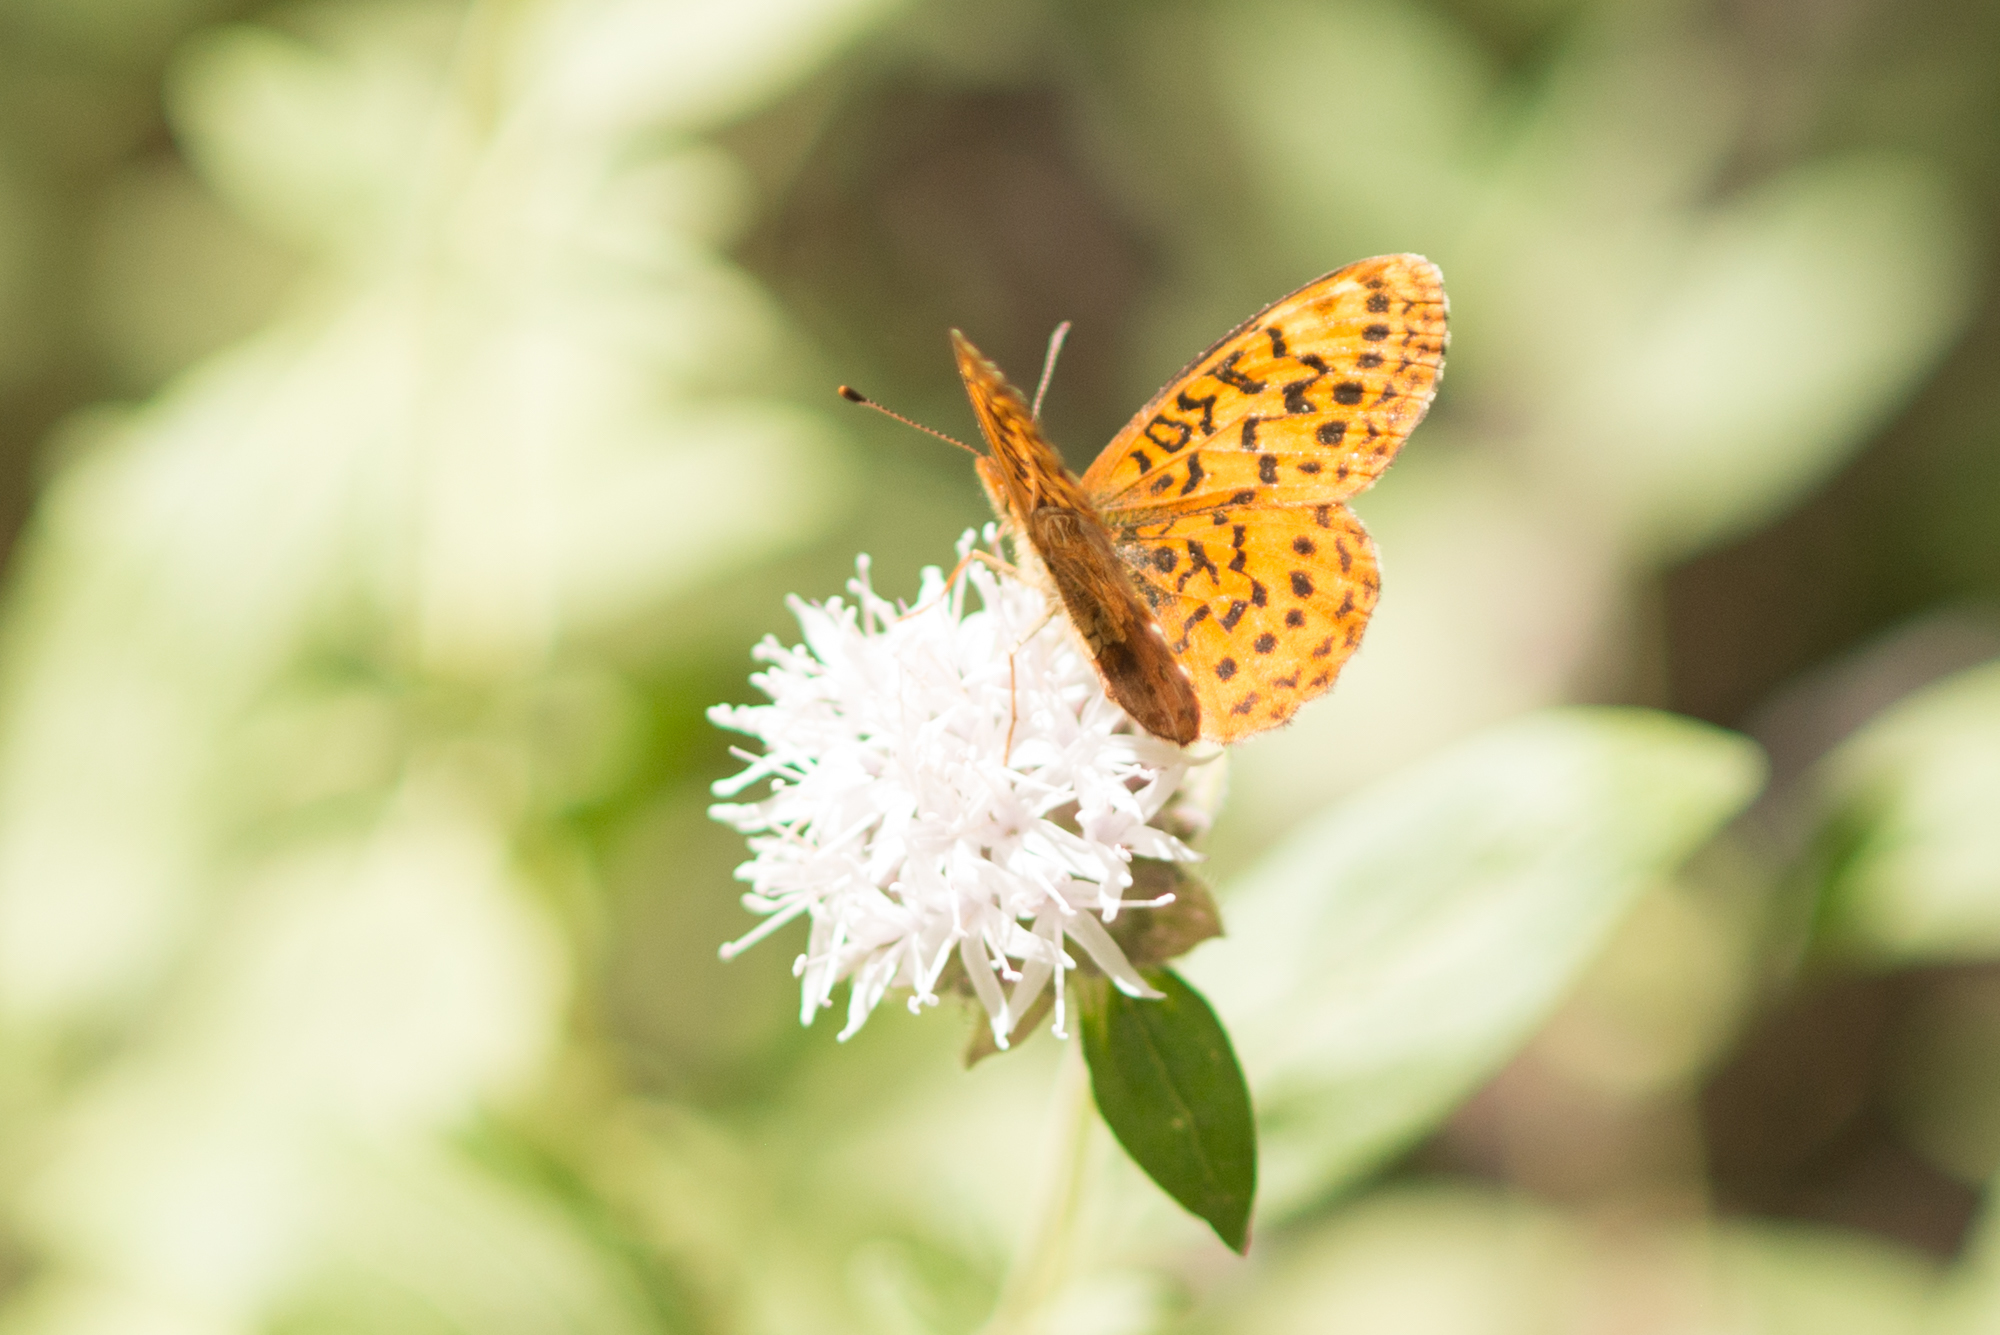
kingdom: Animalia
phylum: Arthropoda
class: Insecta
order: Lepidoptera
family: Nymphalidae
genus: Boloria
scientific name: Boloria epithore
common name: Pacific fritillary
